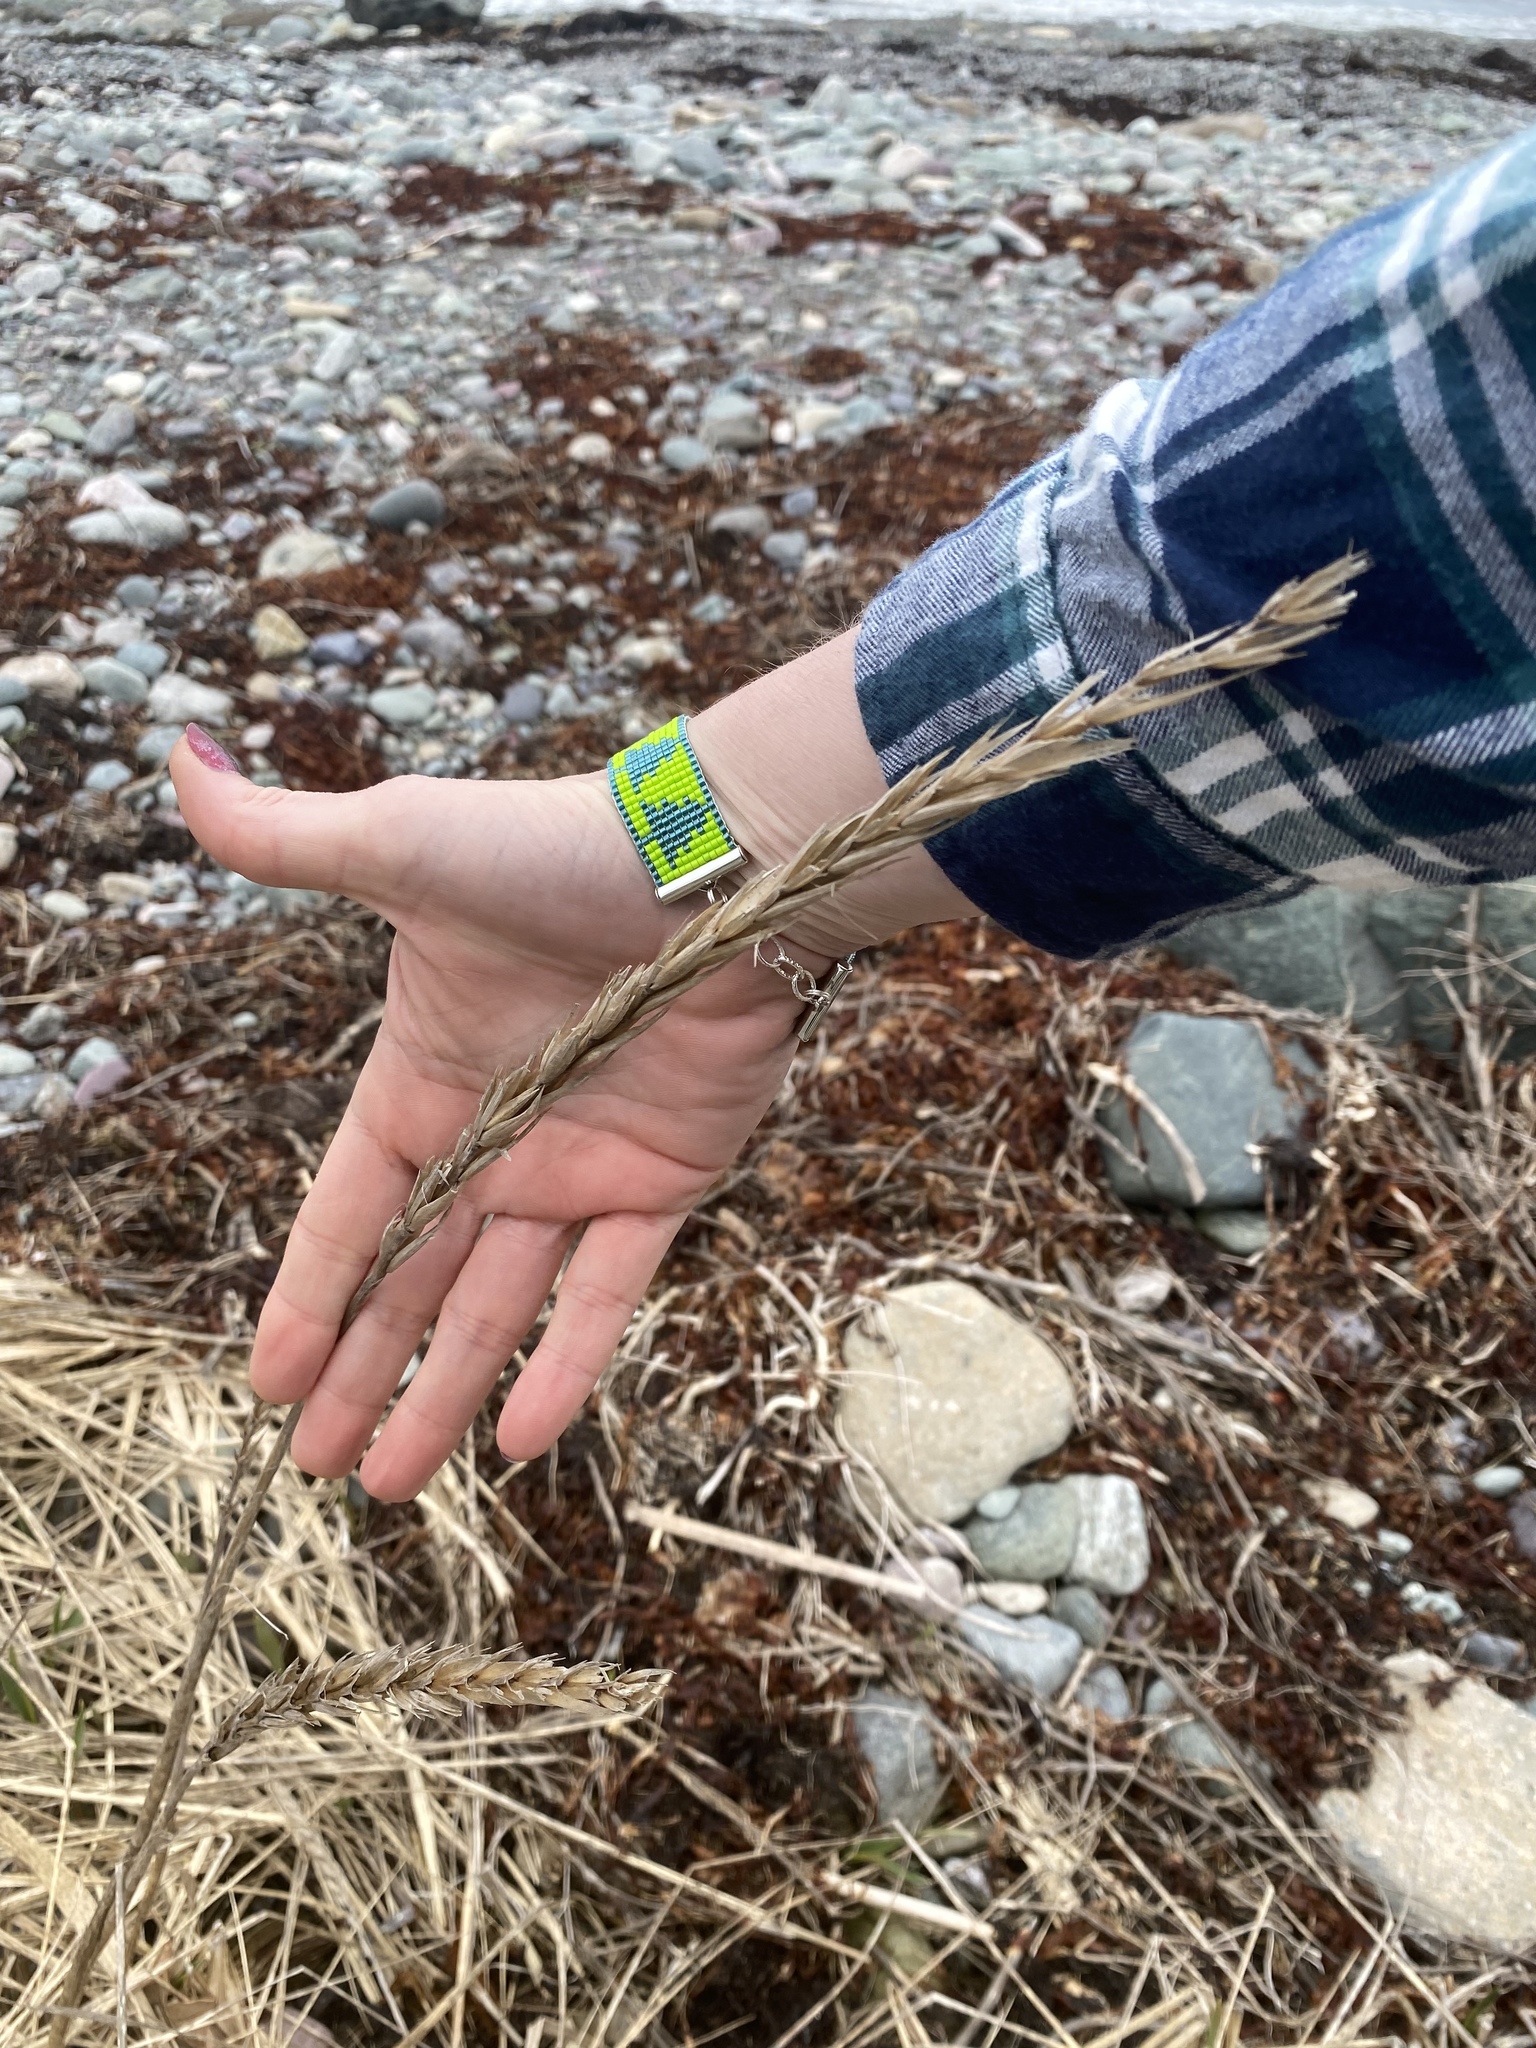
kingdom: Plantae
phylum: Tracheophyta
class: Liliopsida
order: Poales
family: Poaceae
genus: Calamagrostis
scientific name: Calamagrostis breviligulata
